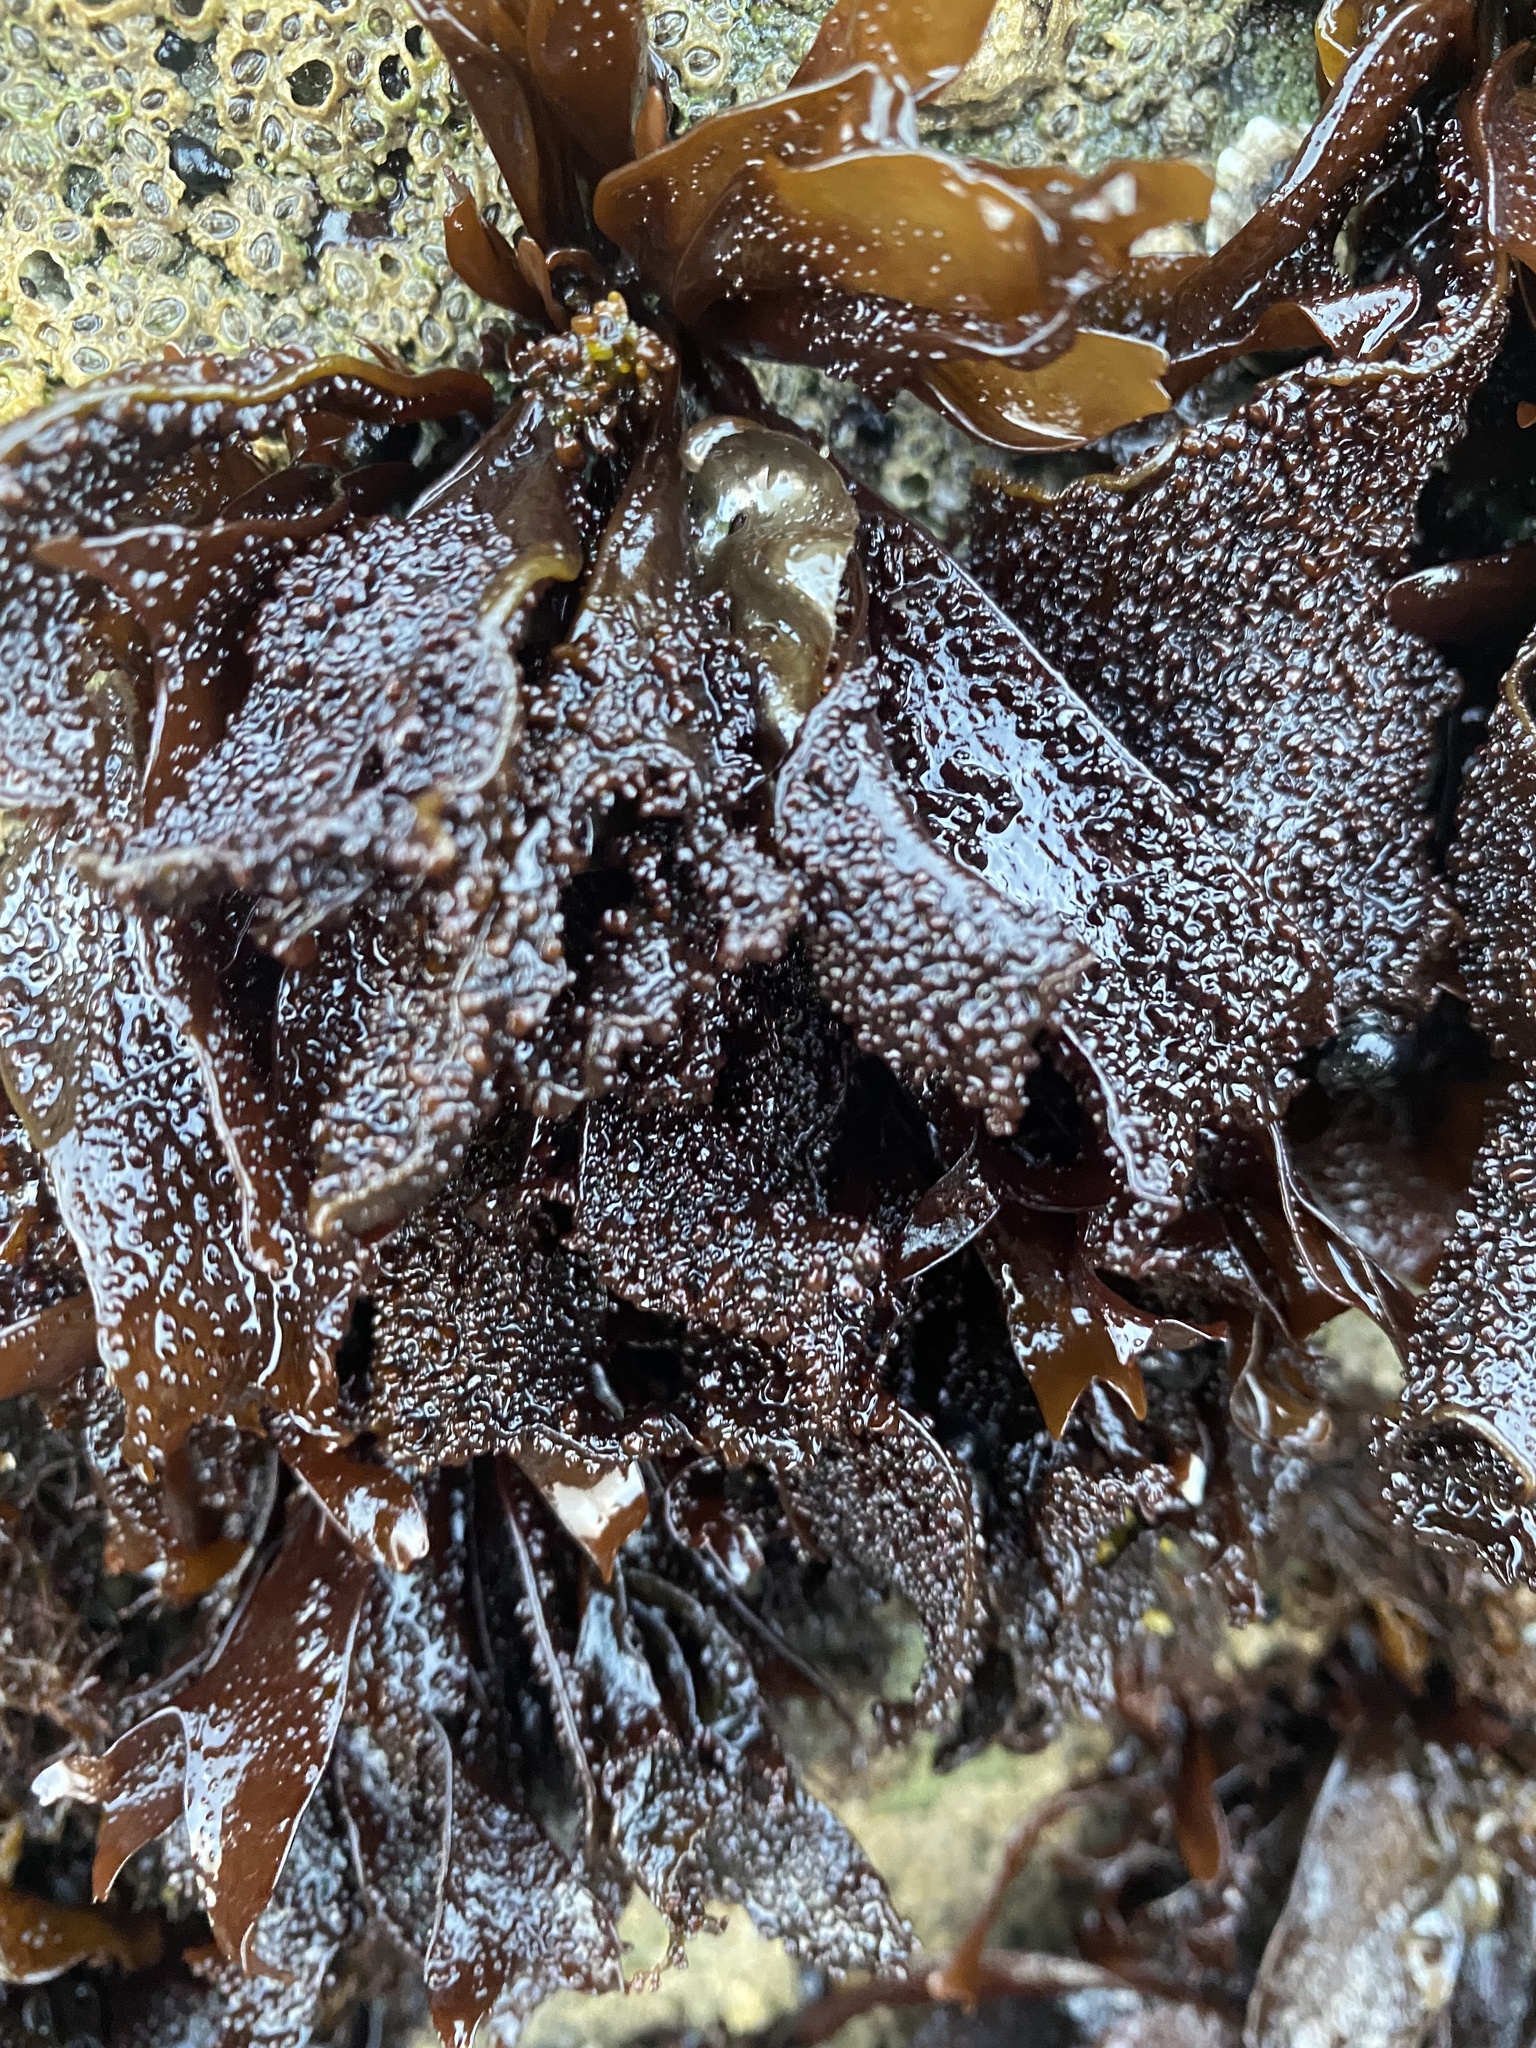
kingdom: Plantae
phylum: Rhodophyta
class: Florideophyceae
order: Gigartinales
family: Phyllophoraceae
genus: Mastocarpus
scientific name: Mastocarpus papillatus
